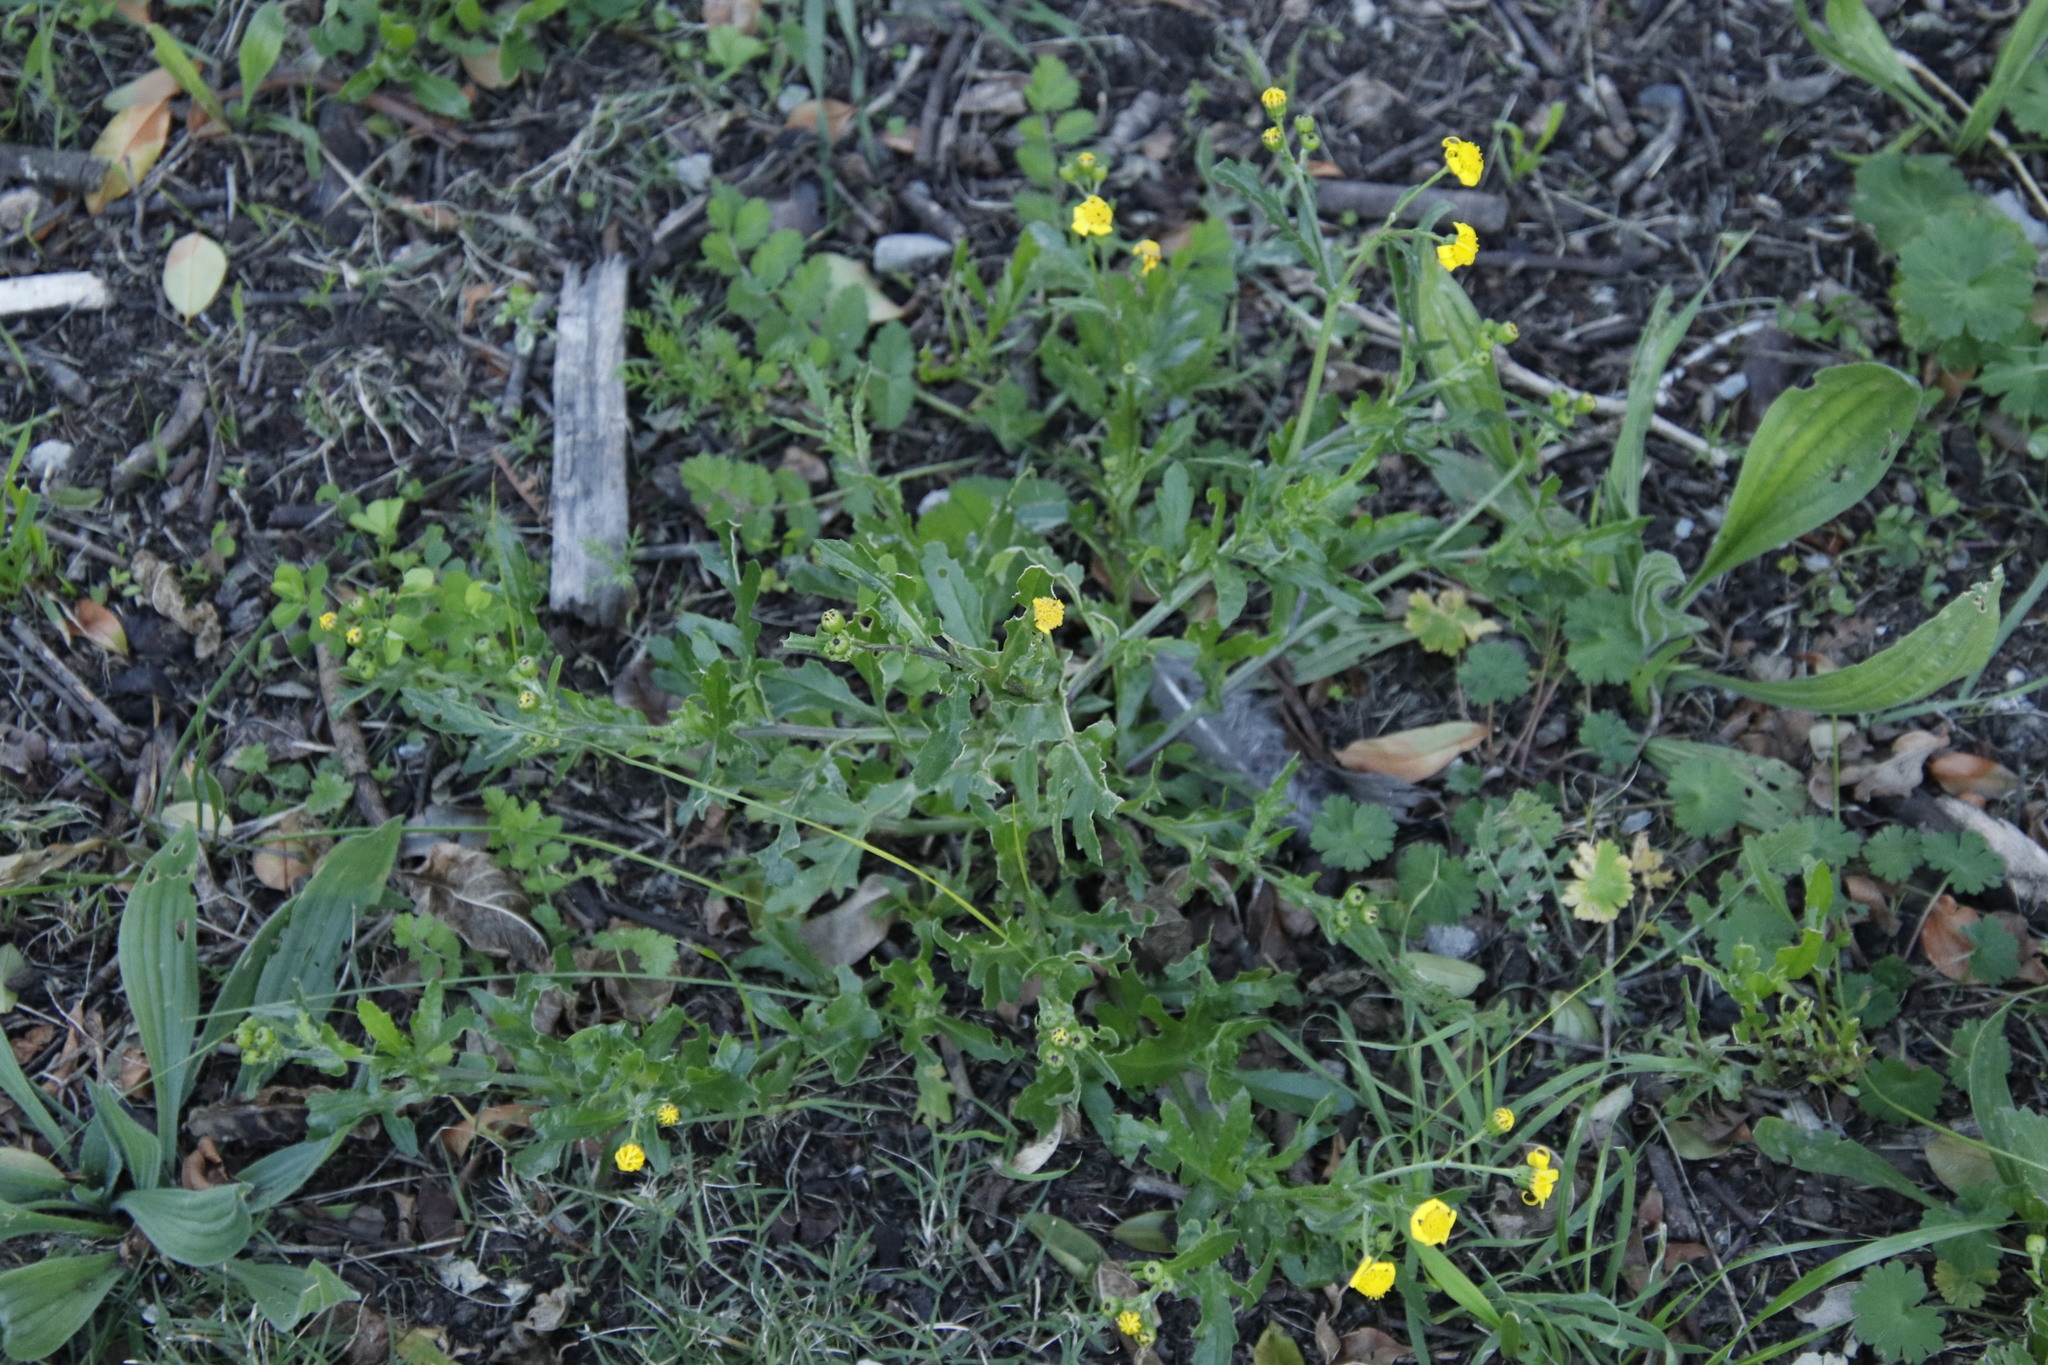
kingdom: Plantae
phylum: Tracheophyta
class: Magnoliopsida
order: Asterales
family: Asteraceae
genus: Senecio
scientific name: Senecio littoreus
